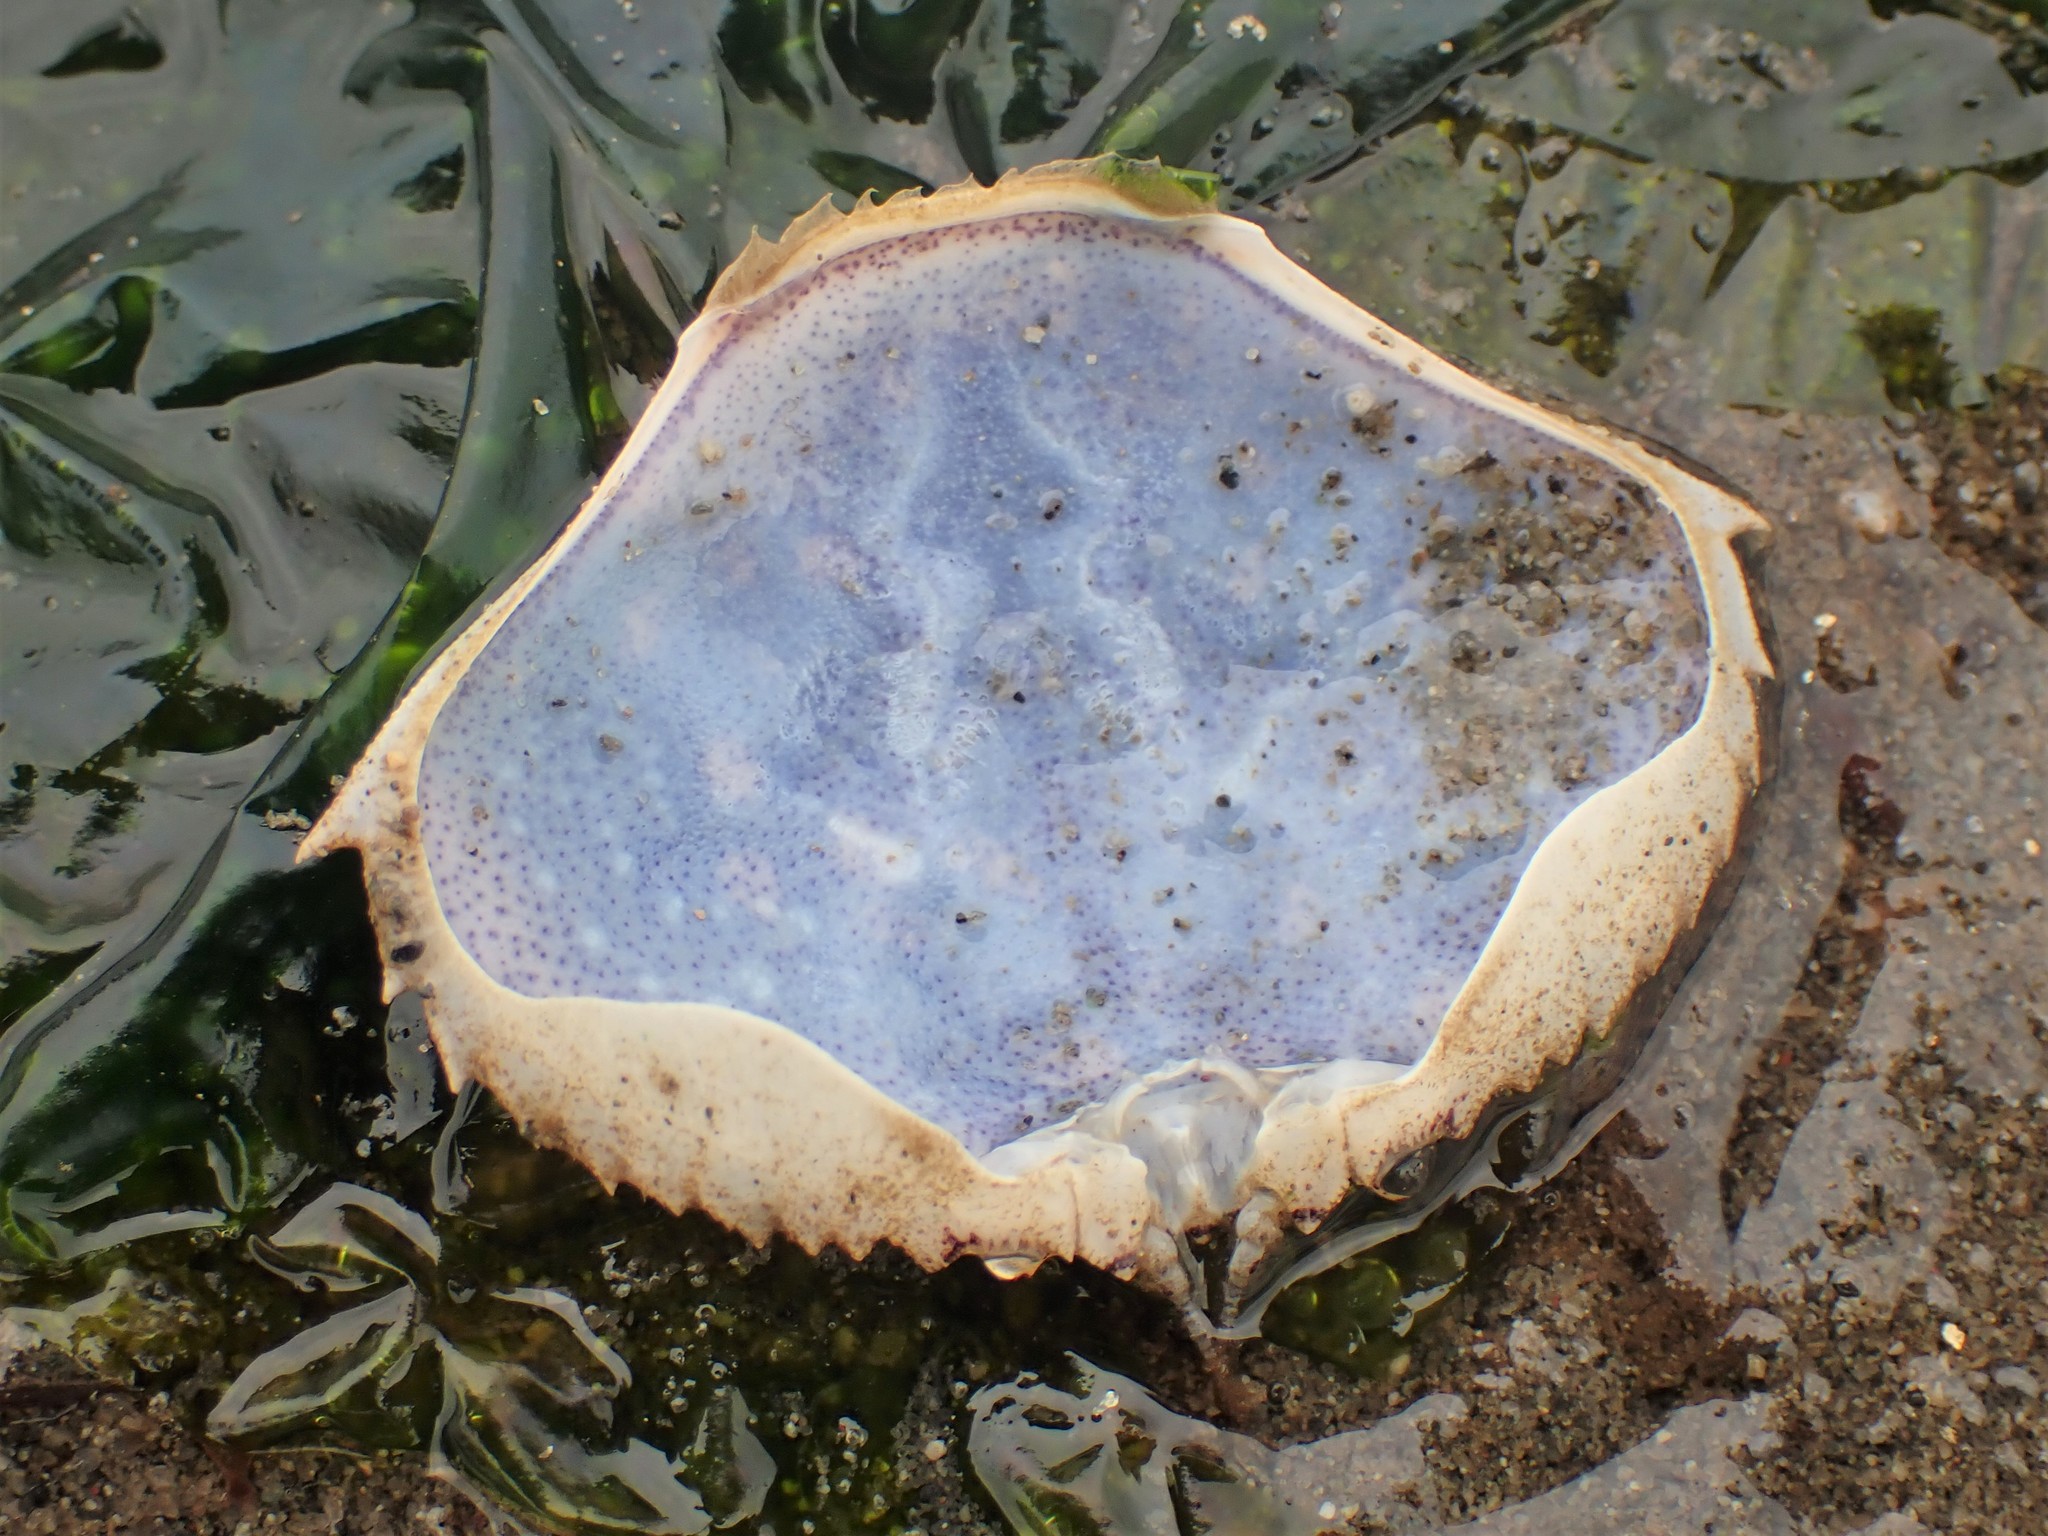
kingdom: Animalia
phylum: Arthropoda
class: Malacostraca
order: Decapoda
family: Cancridae
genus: Metacarcinus
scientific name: Metacarcinus magister
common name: Californian crab
